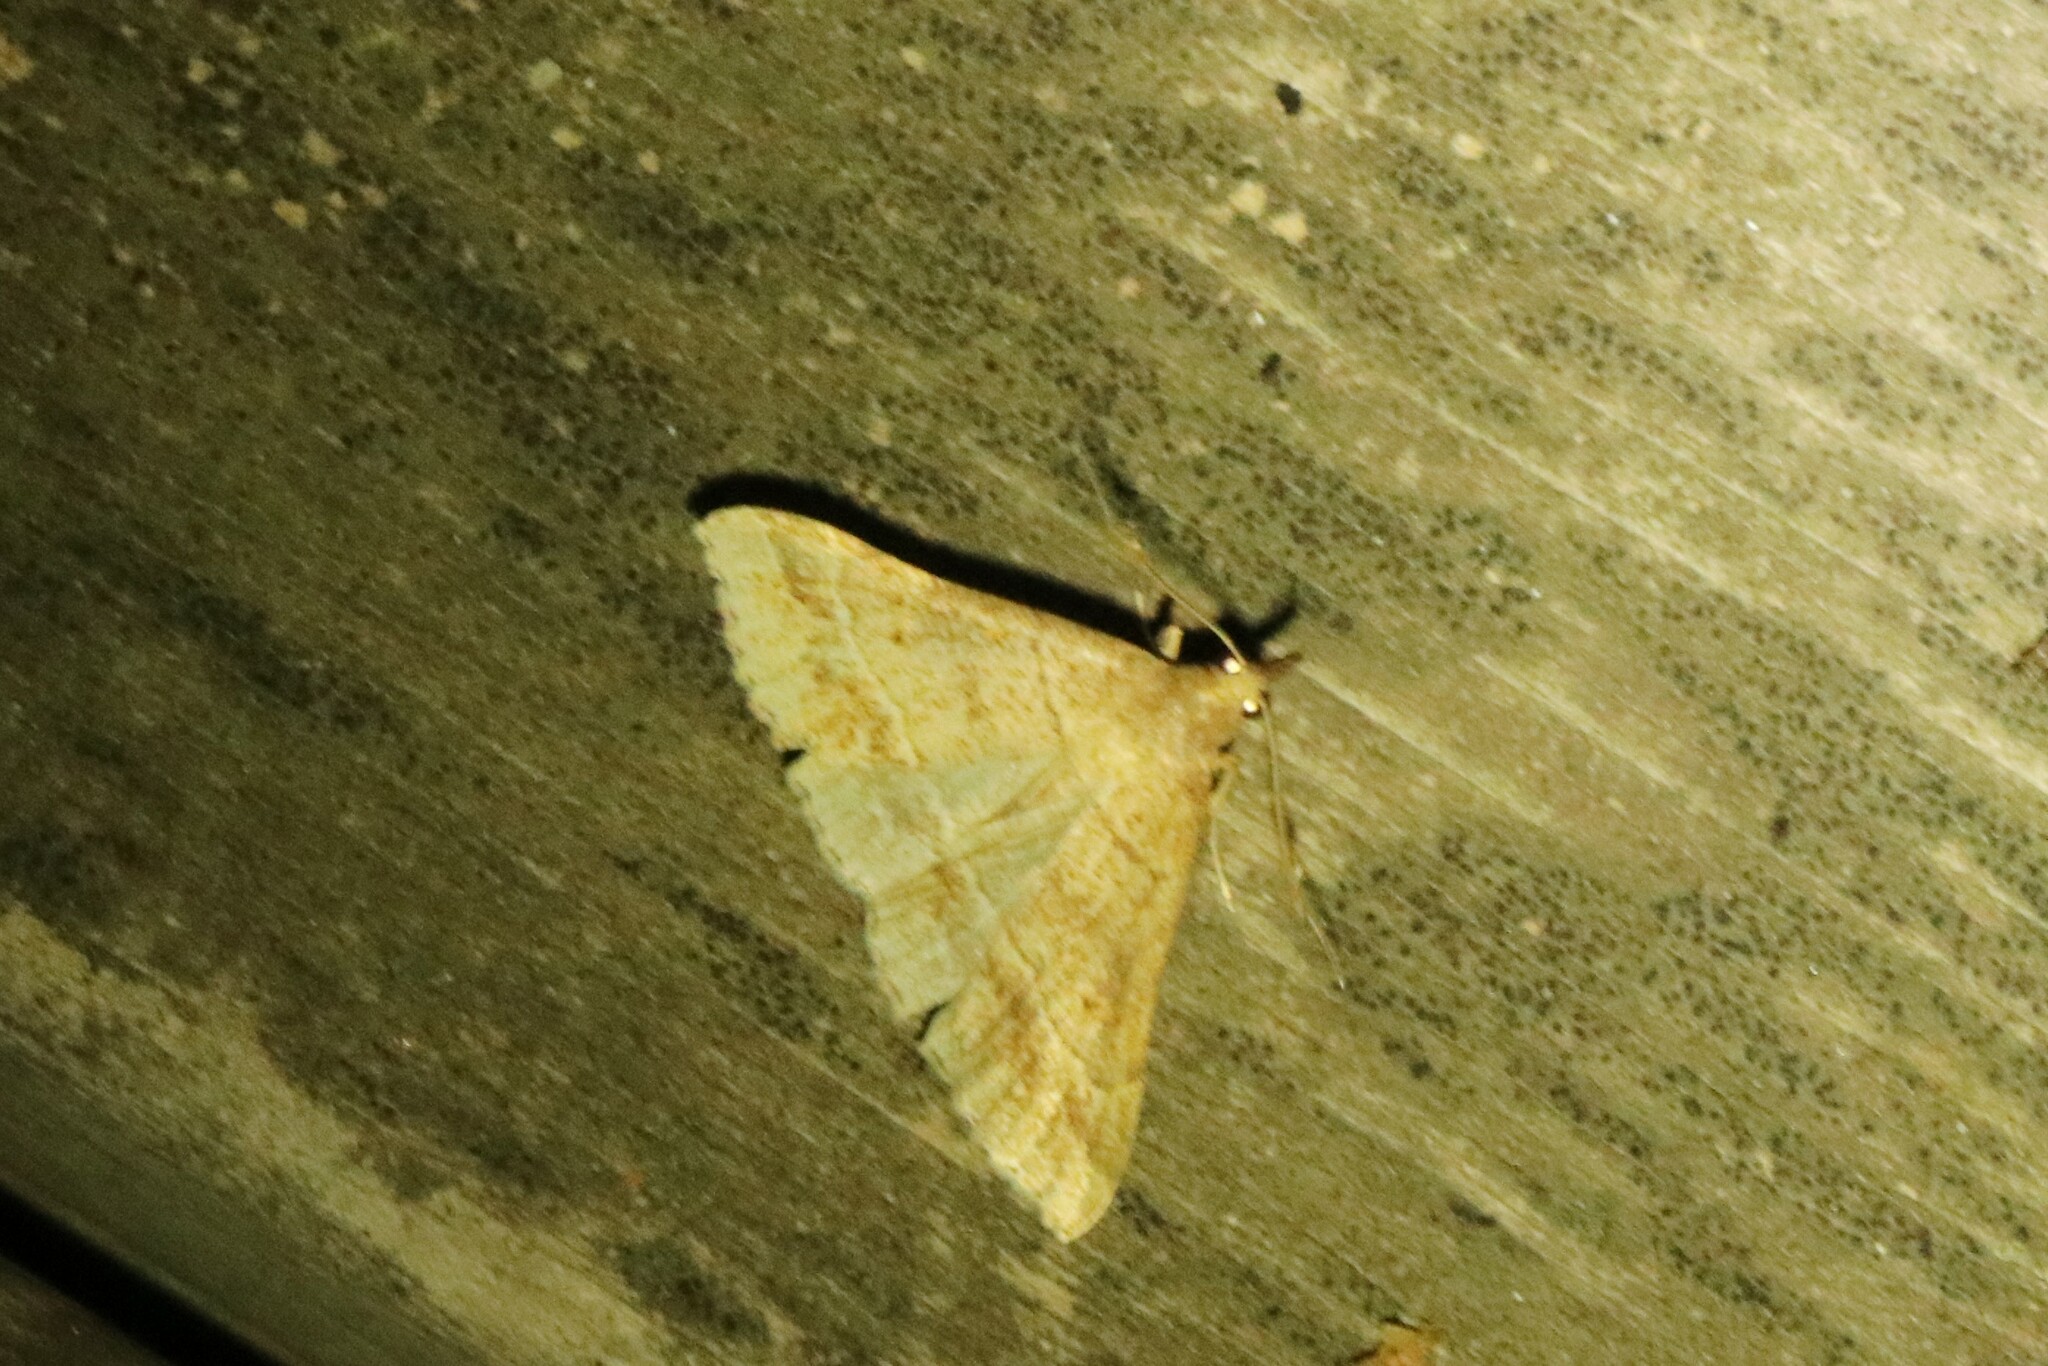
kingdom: Animalia
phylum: Arthropoda
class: Insecta
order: Lepidoptera
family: Erebidae
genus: Renia
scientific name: Renia flavipunctalis
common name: Yellow-spotted renia moth
